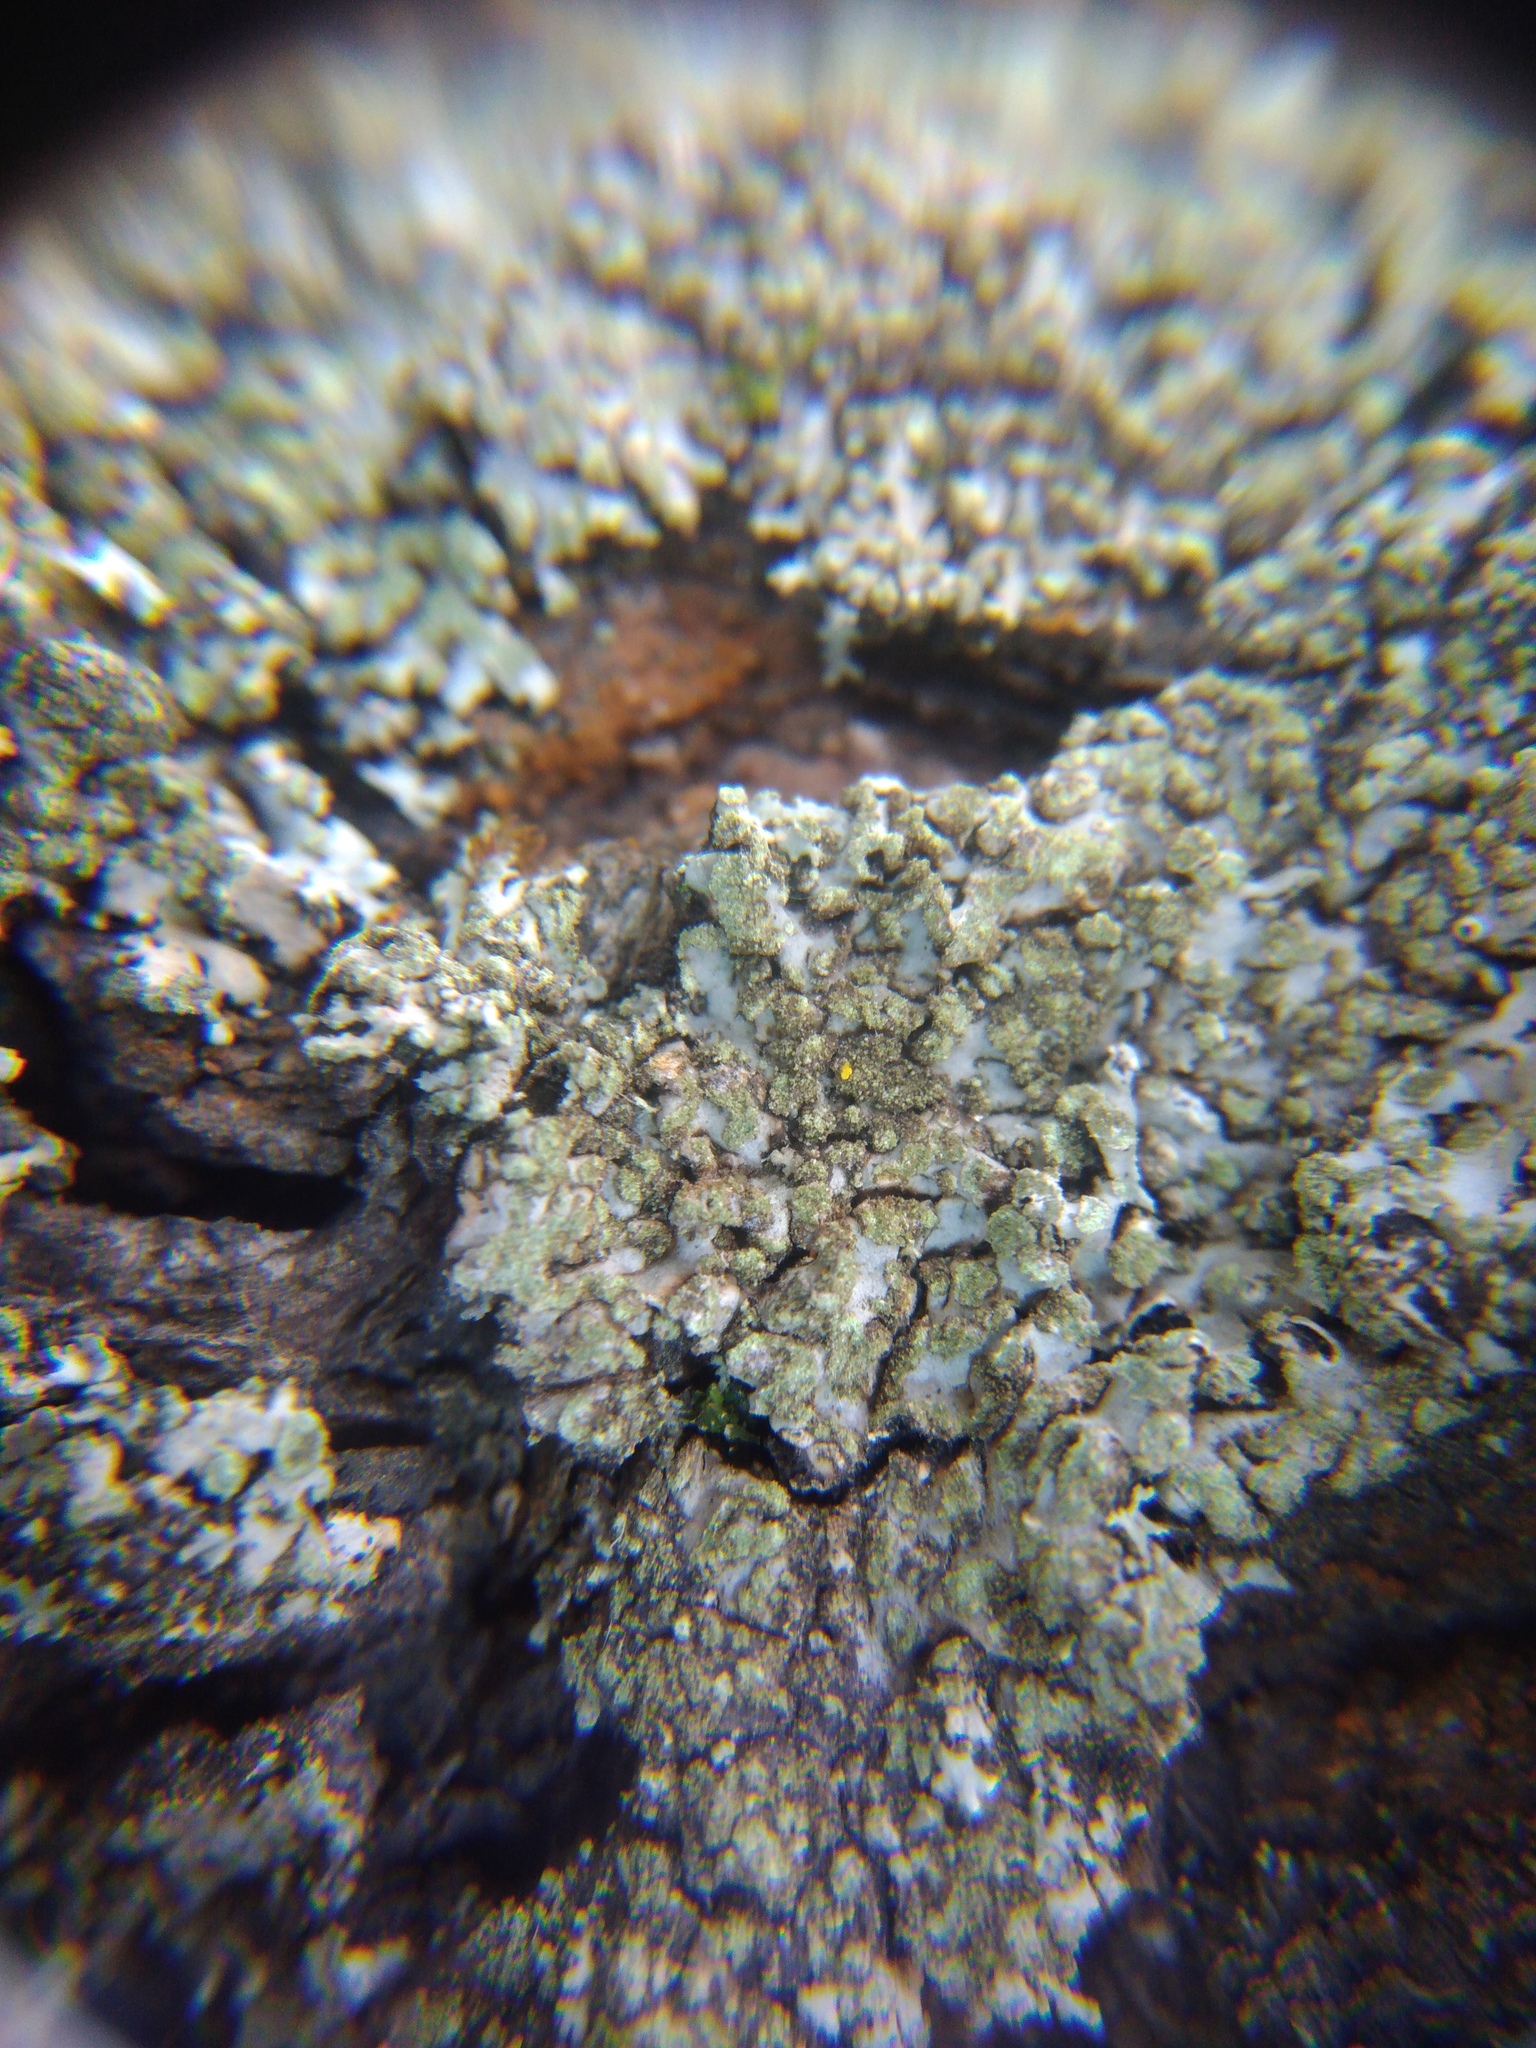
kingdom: Fungi
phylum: Ascomycota
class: Lecanoromycetes
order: Caliciales
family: Physciaceae
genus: Phaeophyscia
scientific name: Phaeophyscia orbicularis
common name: Mealy shadow lichen
